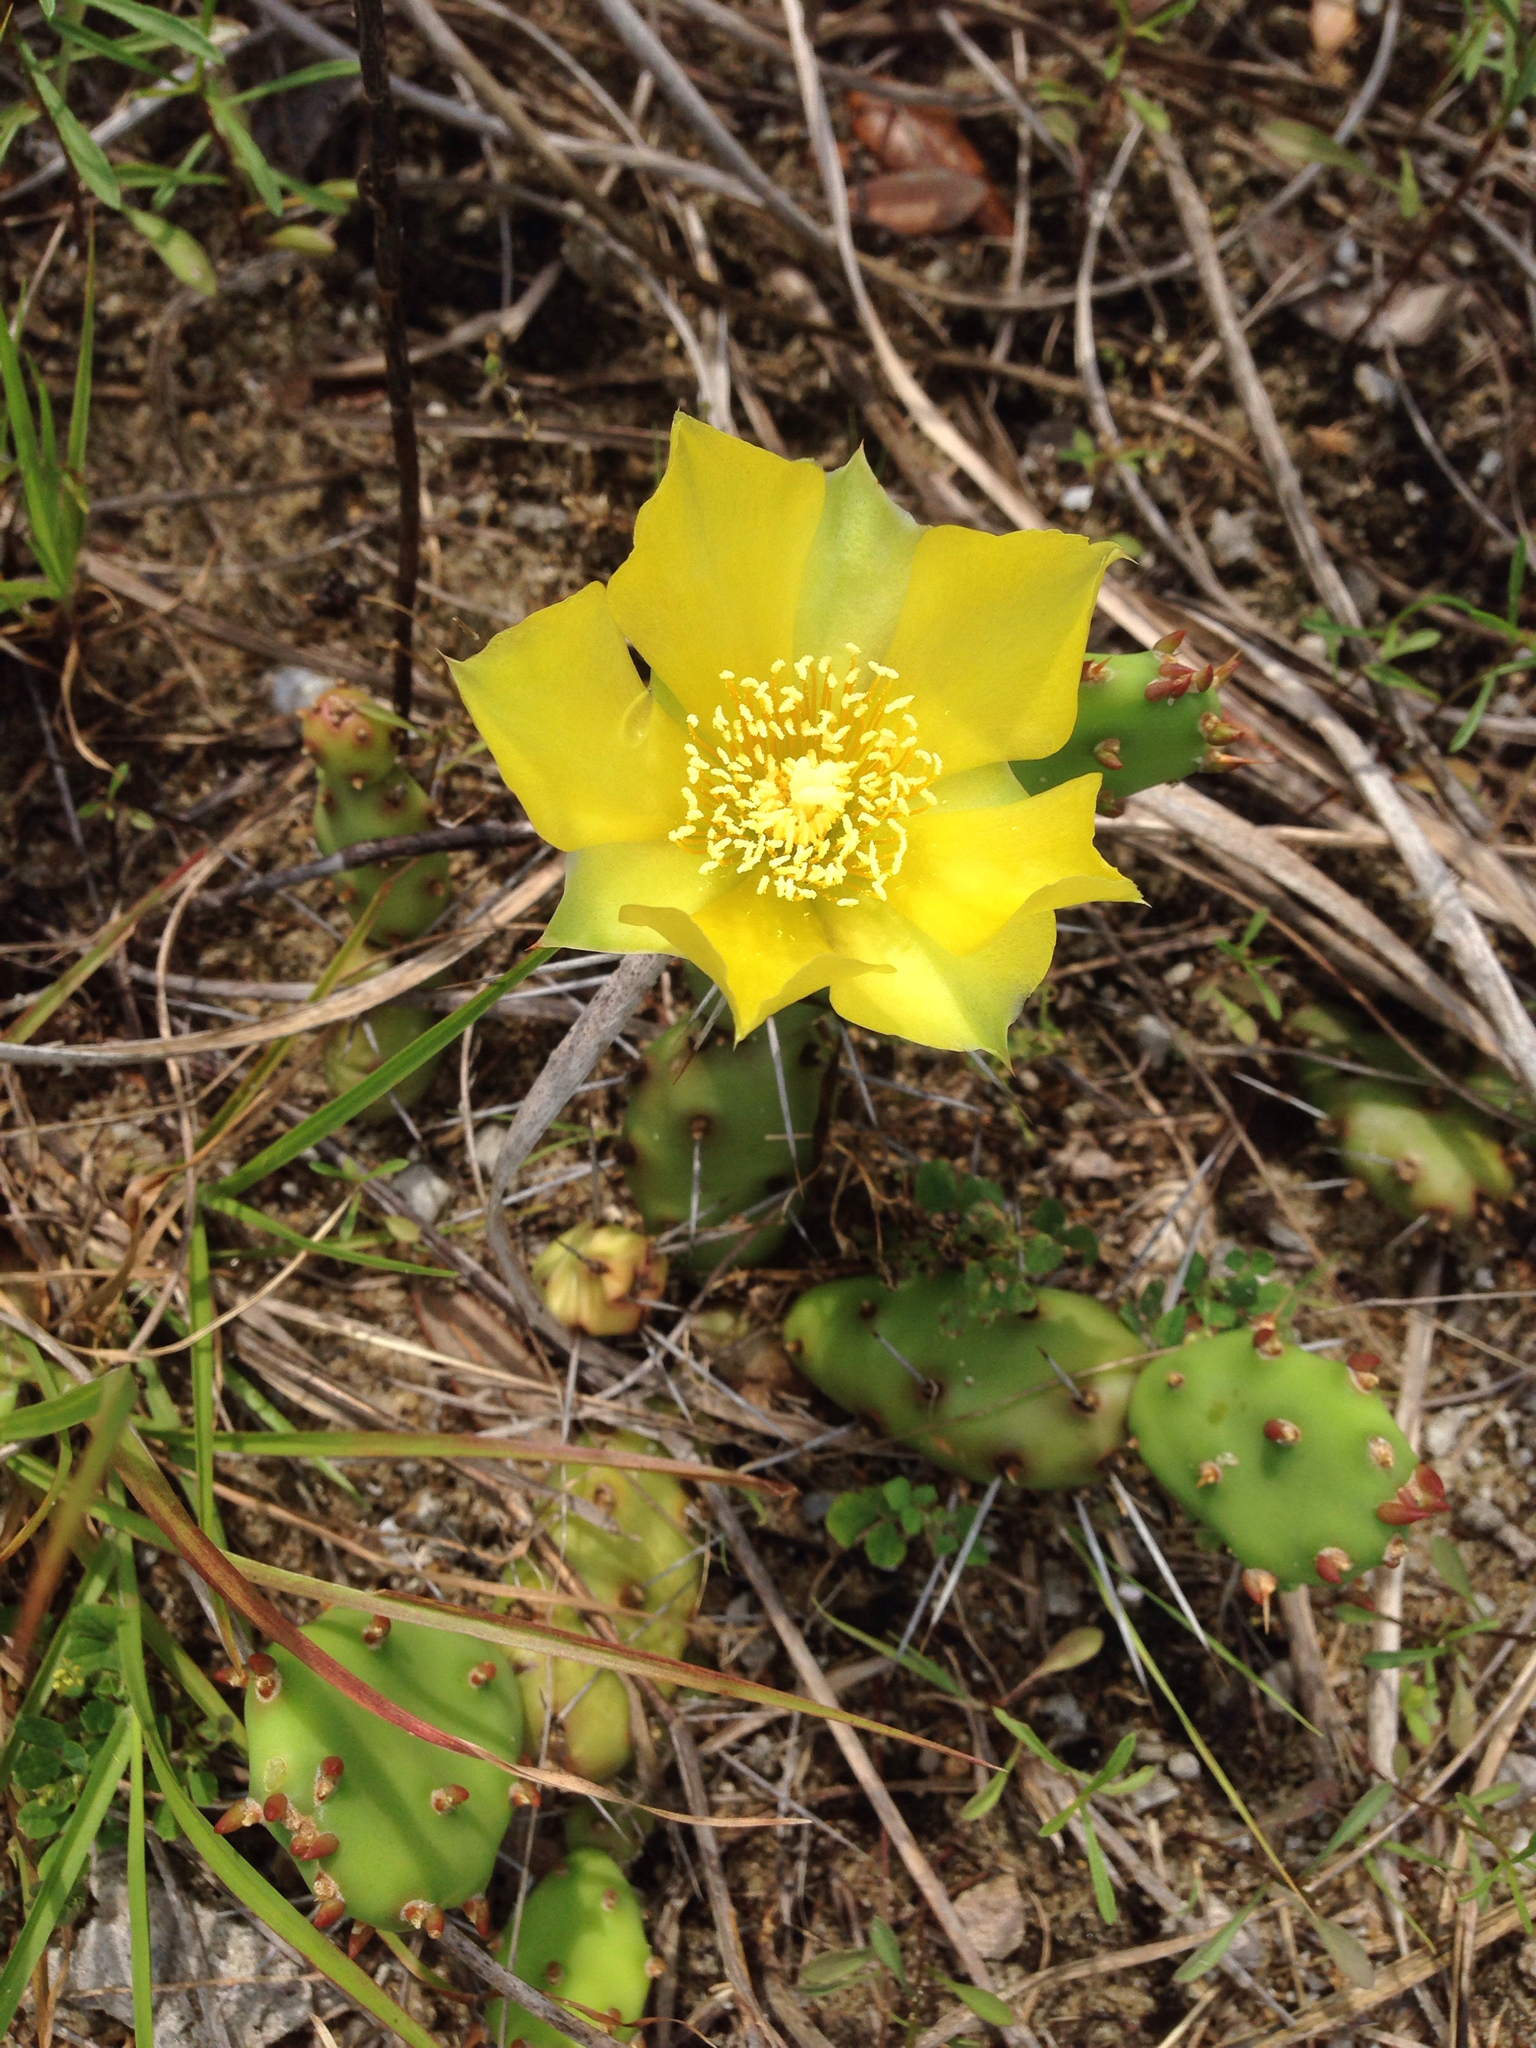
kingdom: Plantae
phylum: Tracheophyta
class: Magnoliopsida
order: Caryophyllales
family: Cactaceae
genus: Opuntia
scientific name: Opuntia drummondii
